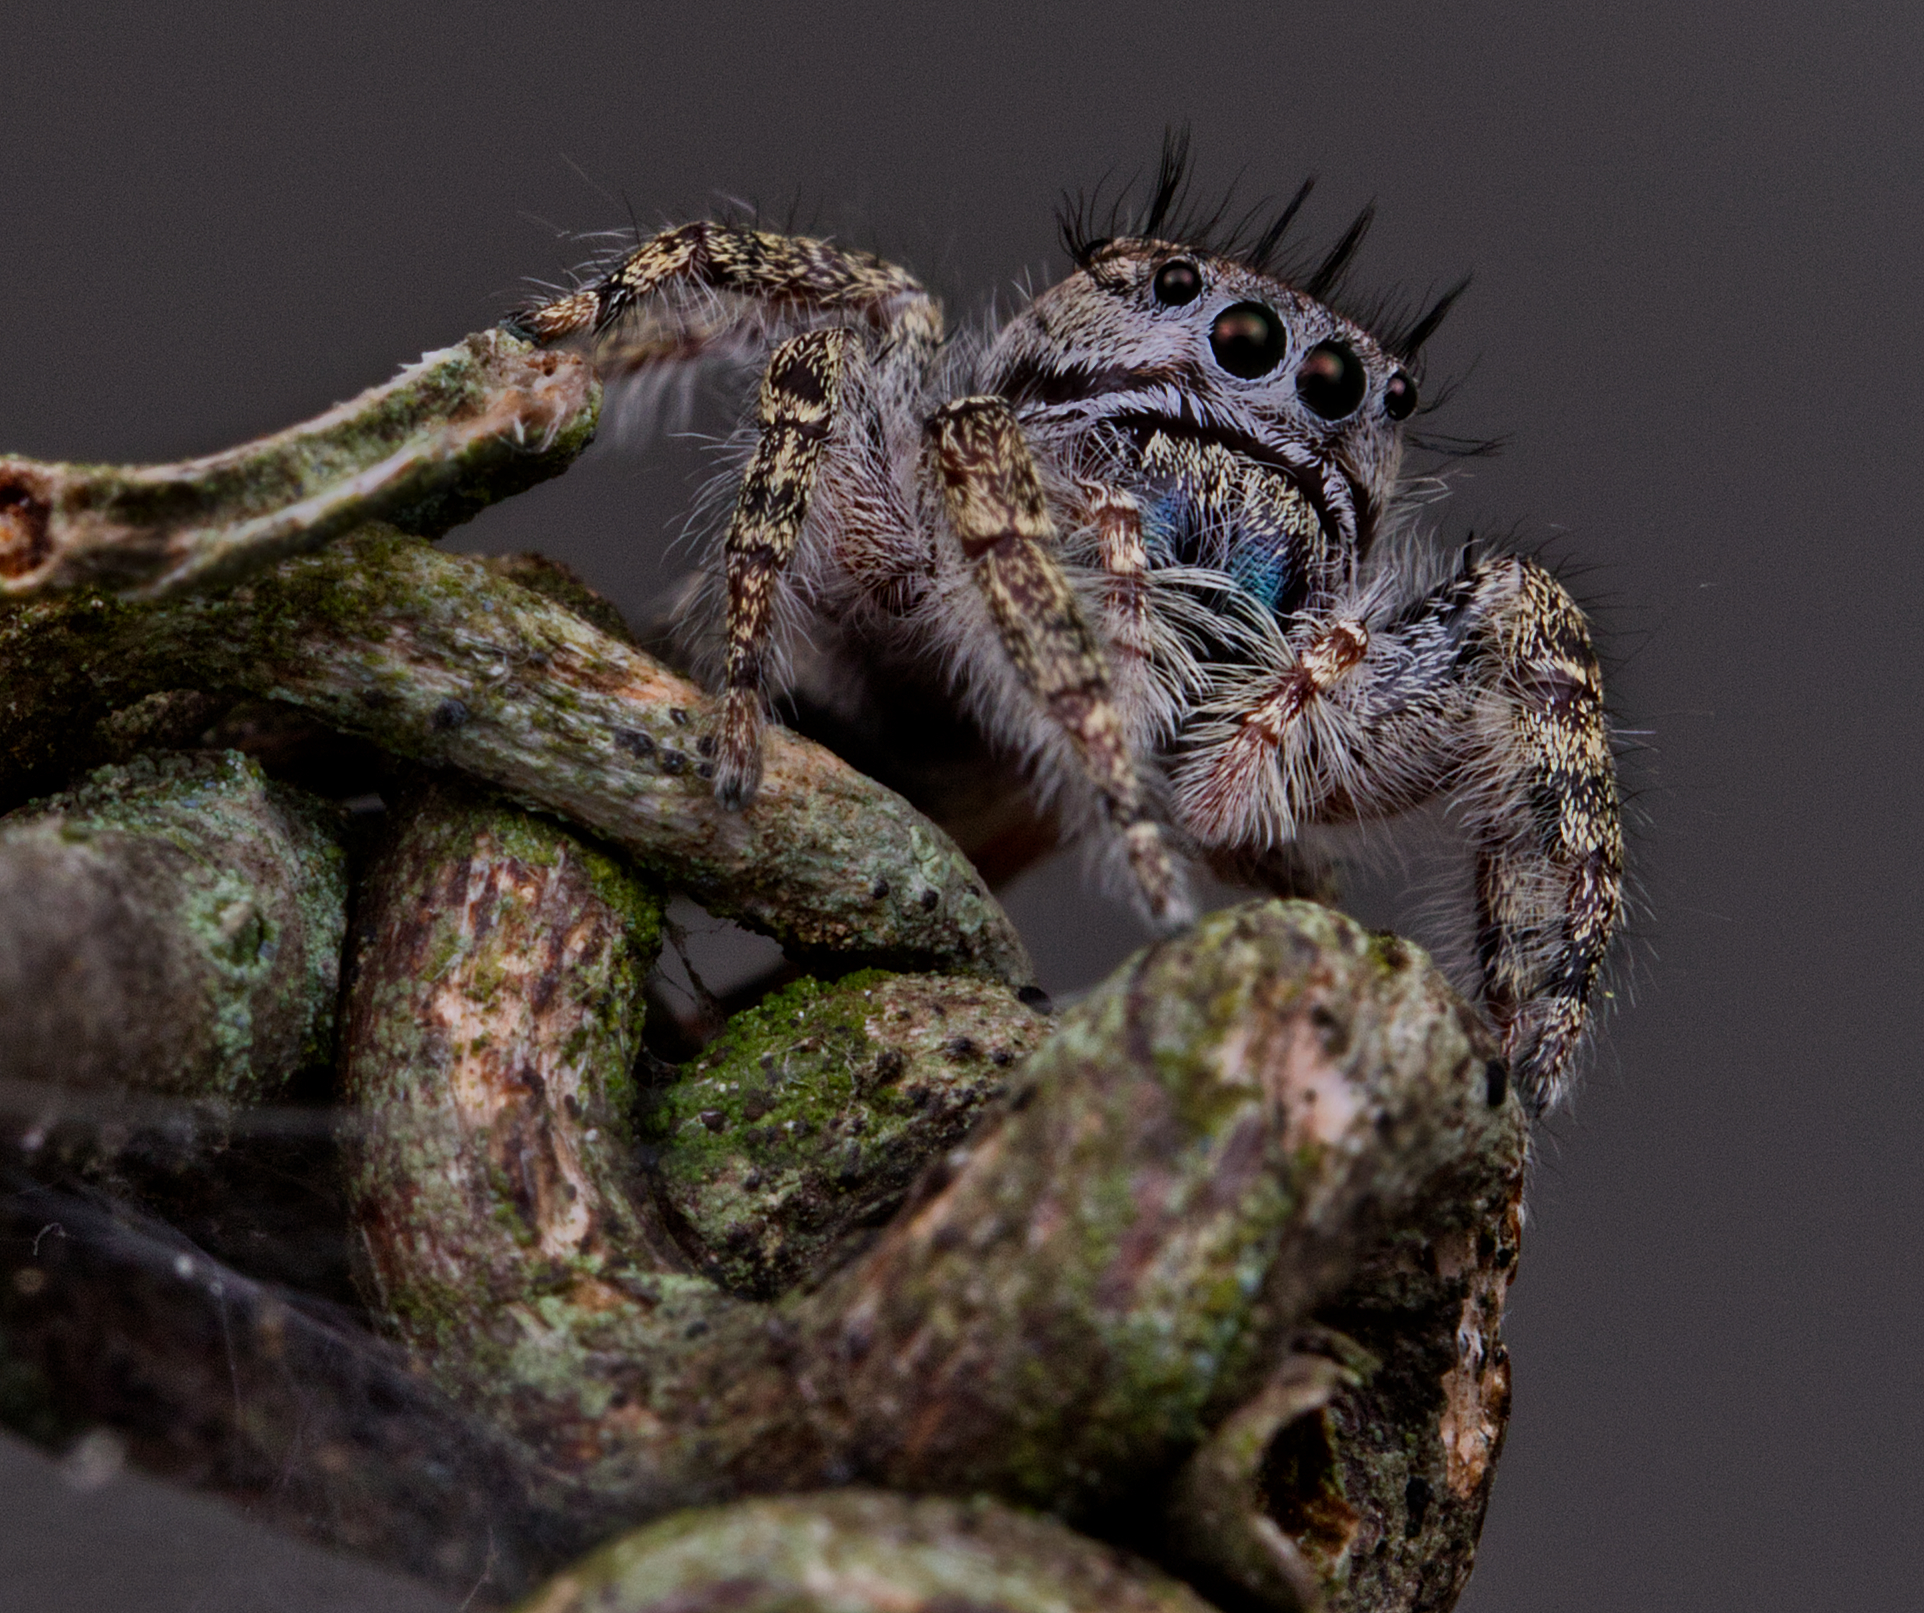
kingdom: Animalia
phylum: Arthropoda
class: Arachnida
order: Araneae
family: Salticidae
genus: Phidippus
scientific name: Phidippus putnami
